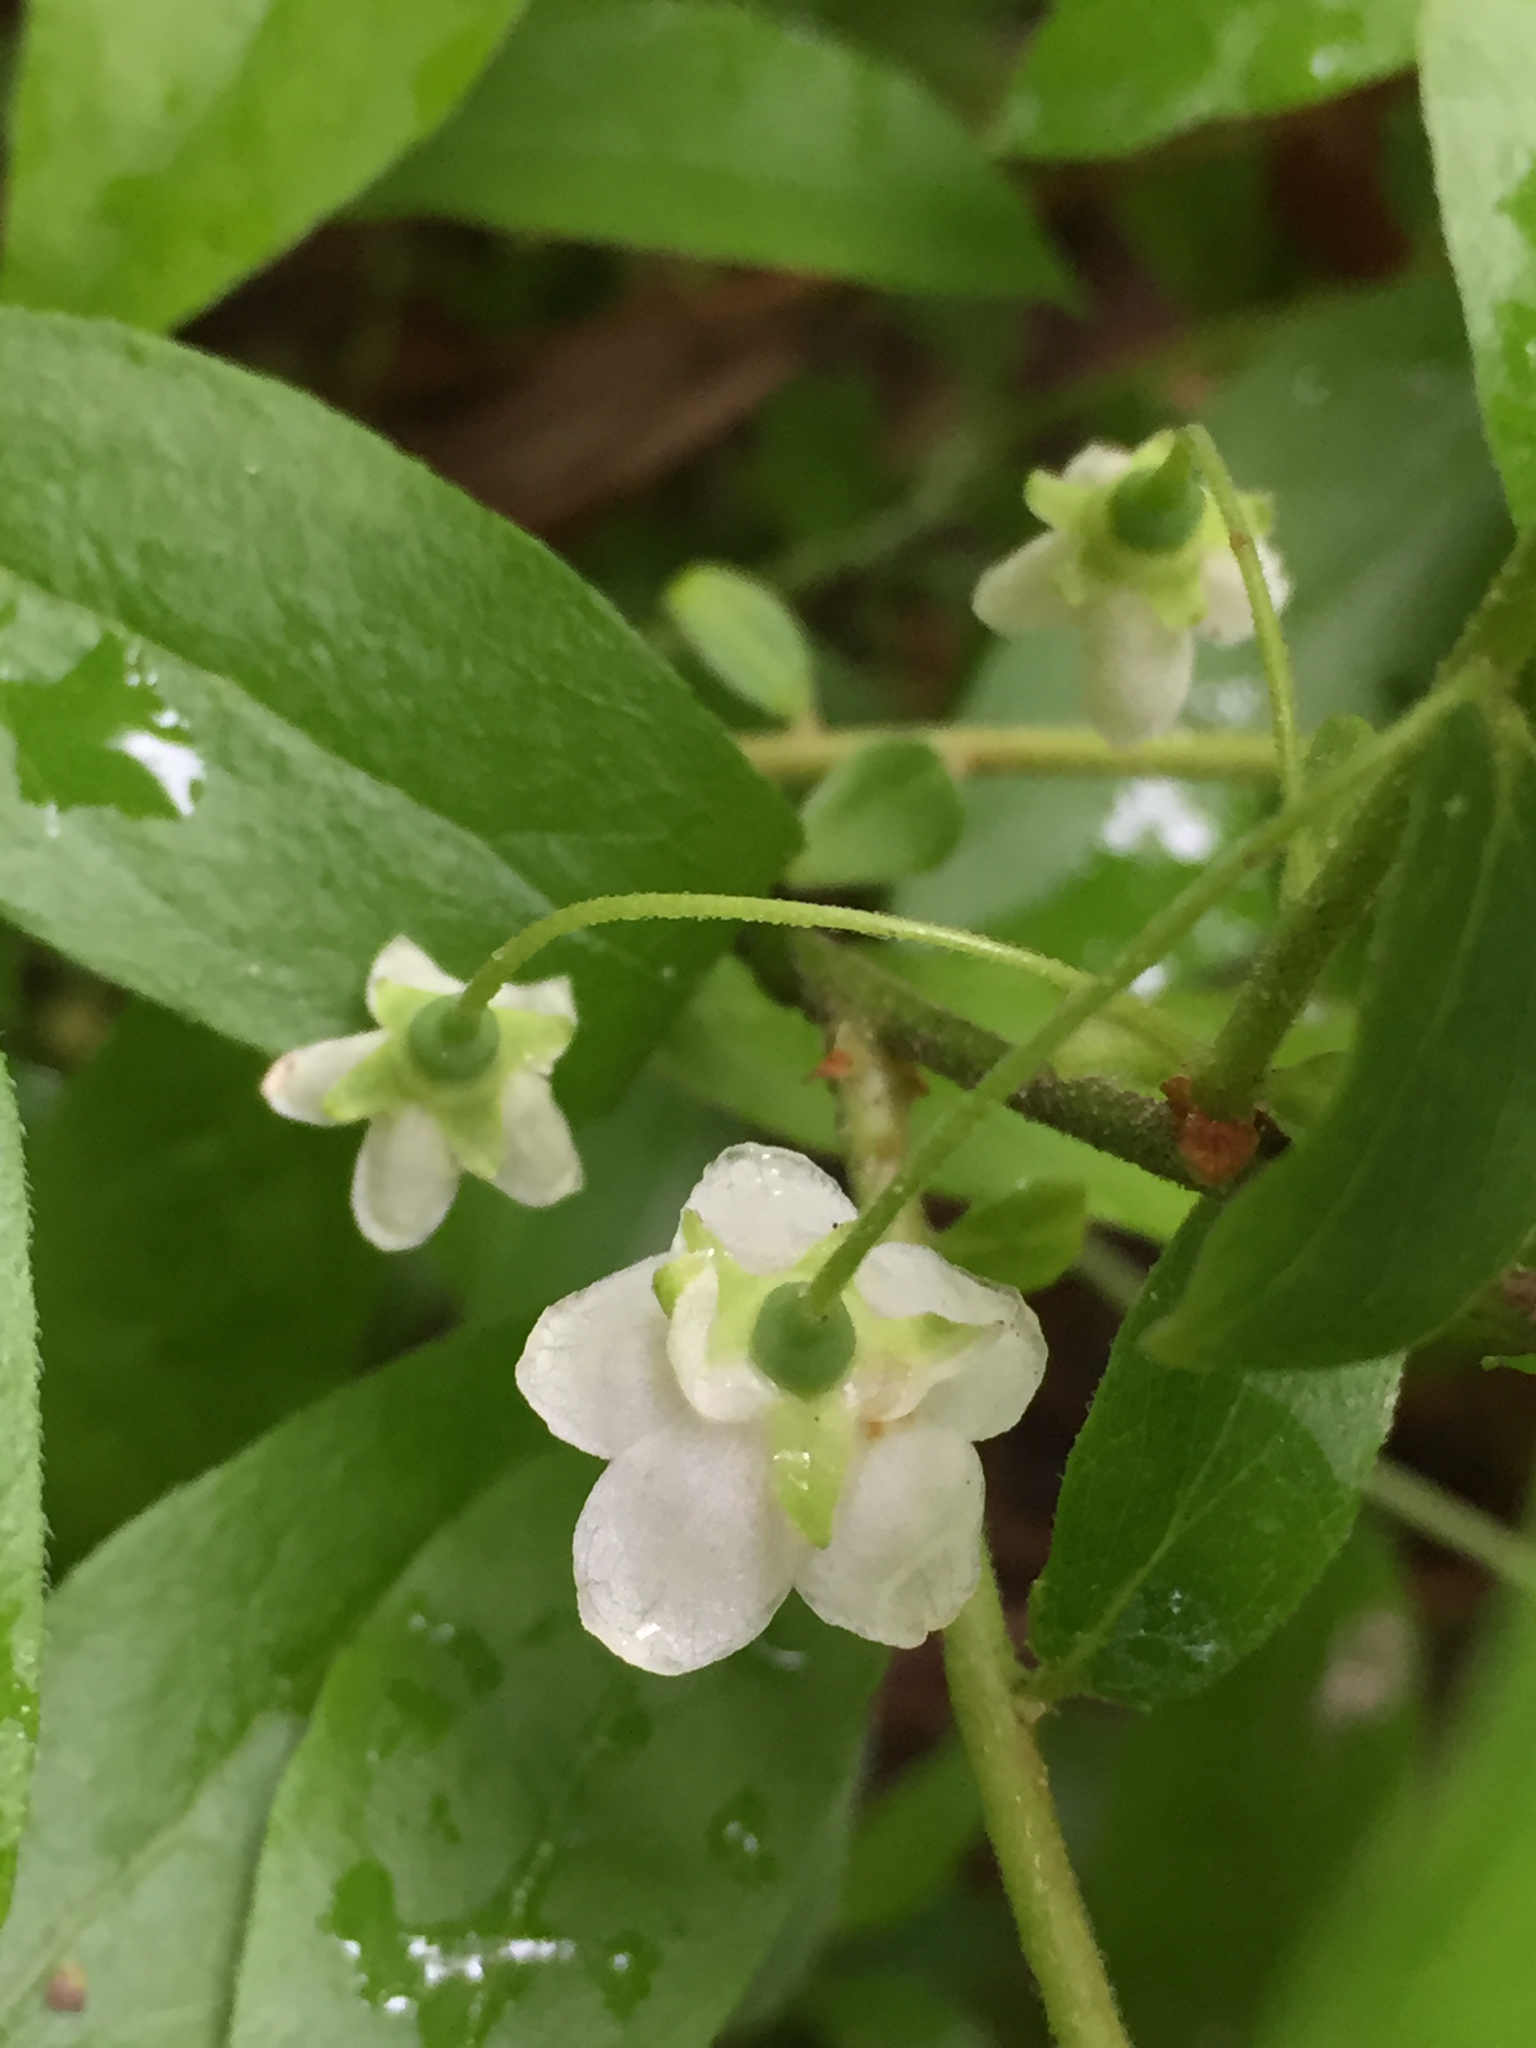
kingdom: Plantae
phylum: Tracheophyta
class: Magnoliopsida
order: Ericales
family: Ericaceae
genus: Vaccinium
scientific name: Vaccinium stamineum
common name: Deerberry
